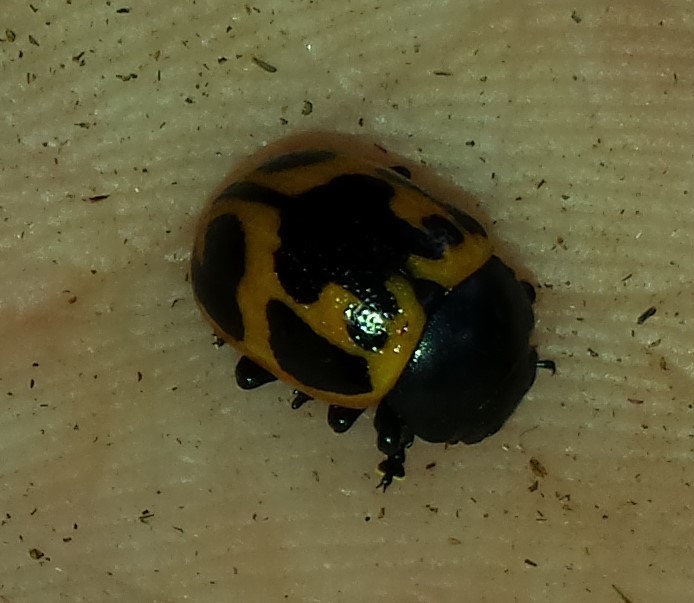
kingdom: Animalia
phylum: Arthropoda
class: Insecta
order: Coleoptera
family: Chrysomelidae
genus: Labidomera
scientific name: Labidomera clivicollis
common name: Swamp milkweed leaf beetle
